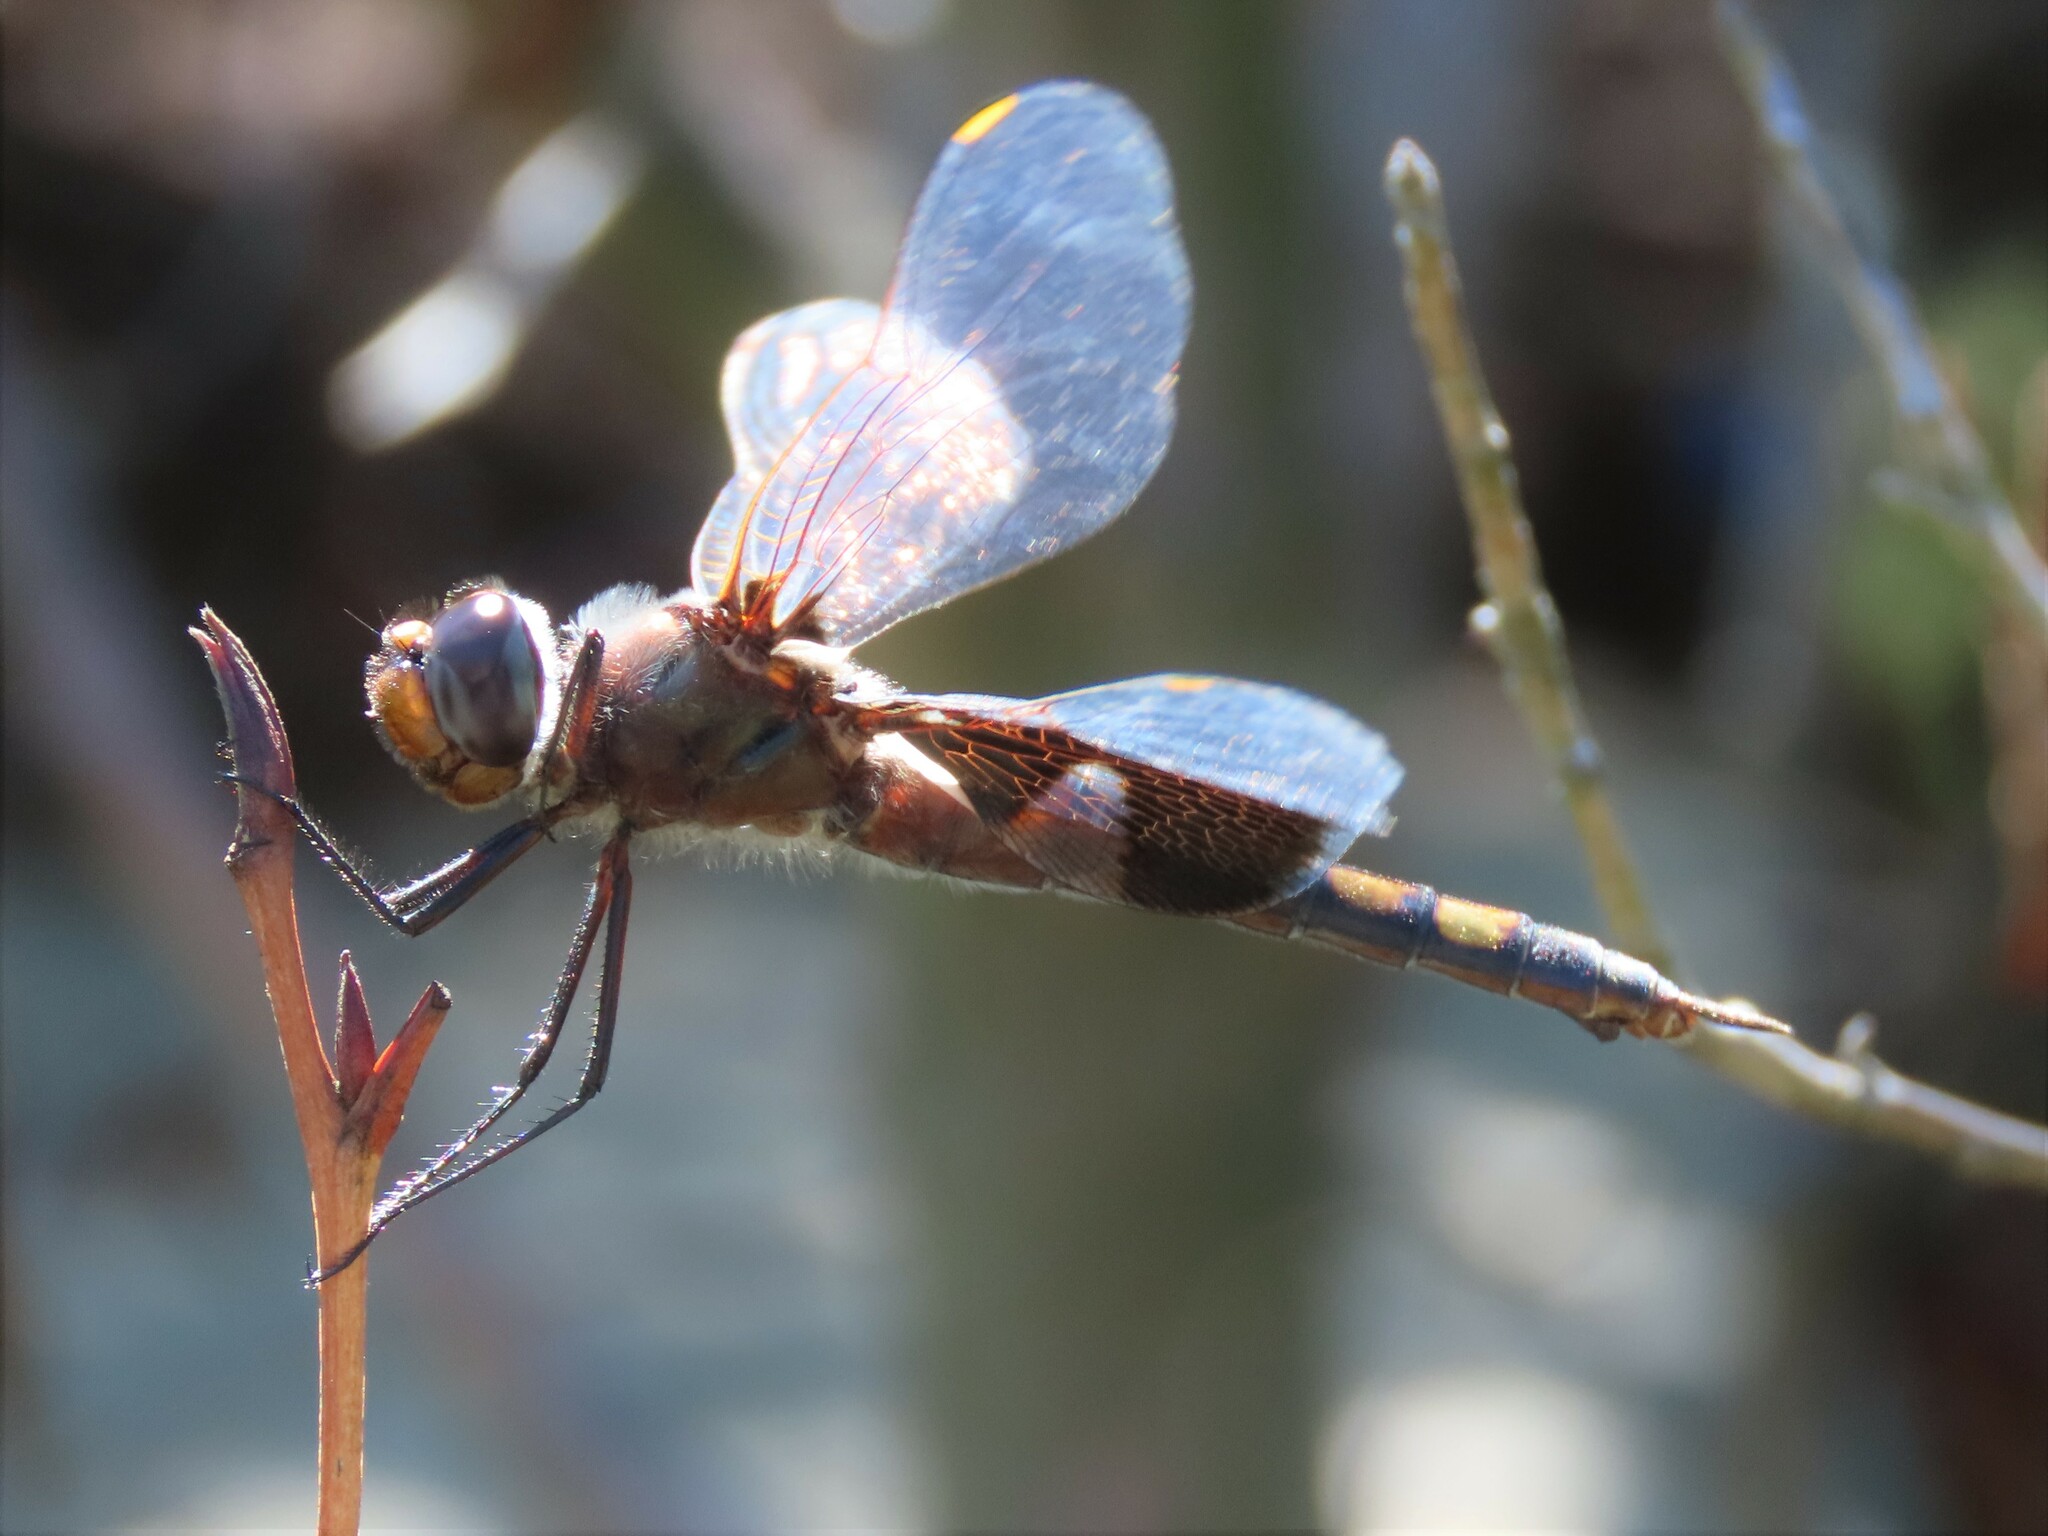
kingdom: Animalia
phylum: Arthropoda
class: Insecta
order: Odonata
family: Libellulidae
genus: Tramea
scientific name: Tramea lacerata
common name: Black saddlebags
